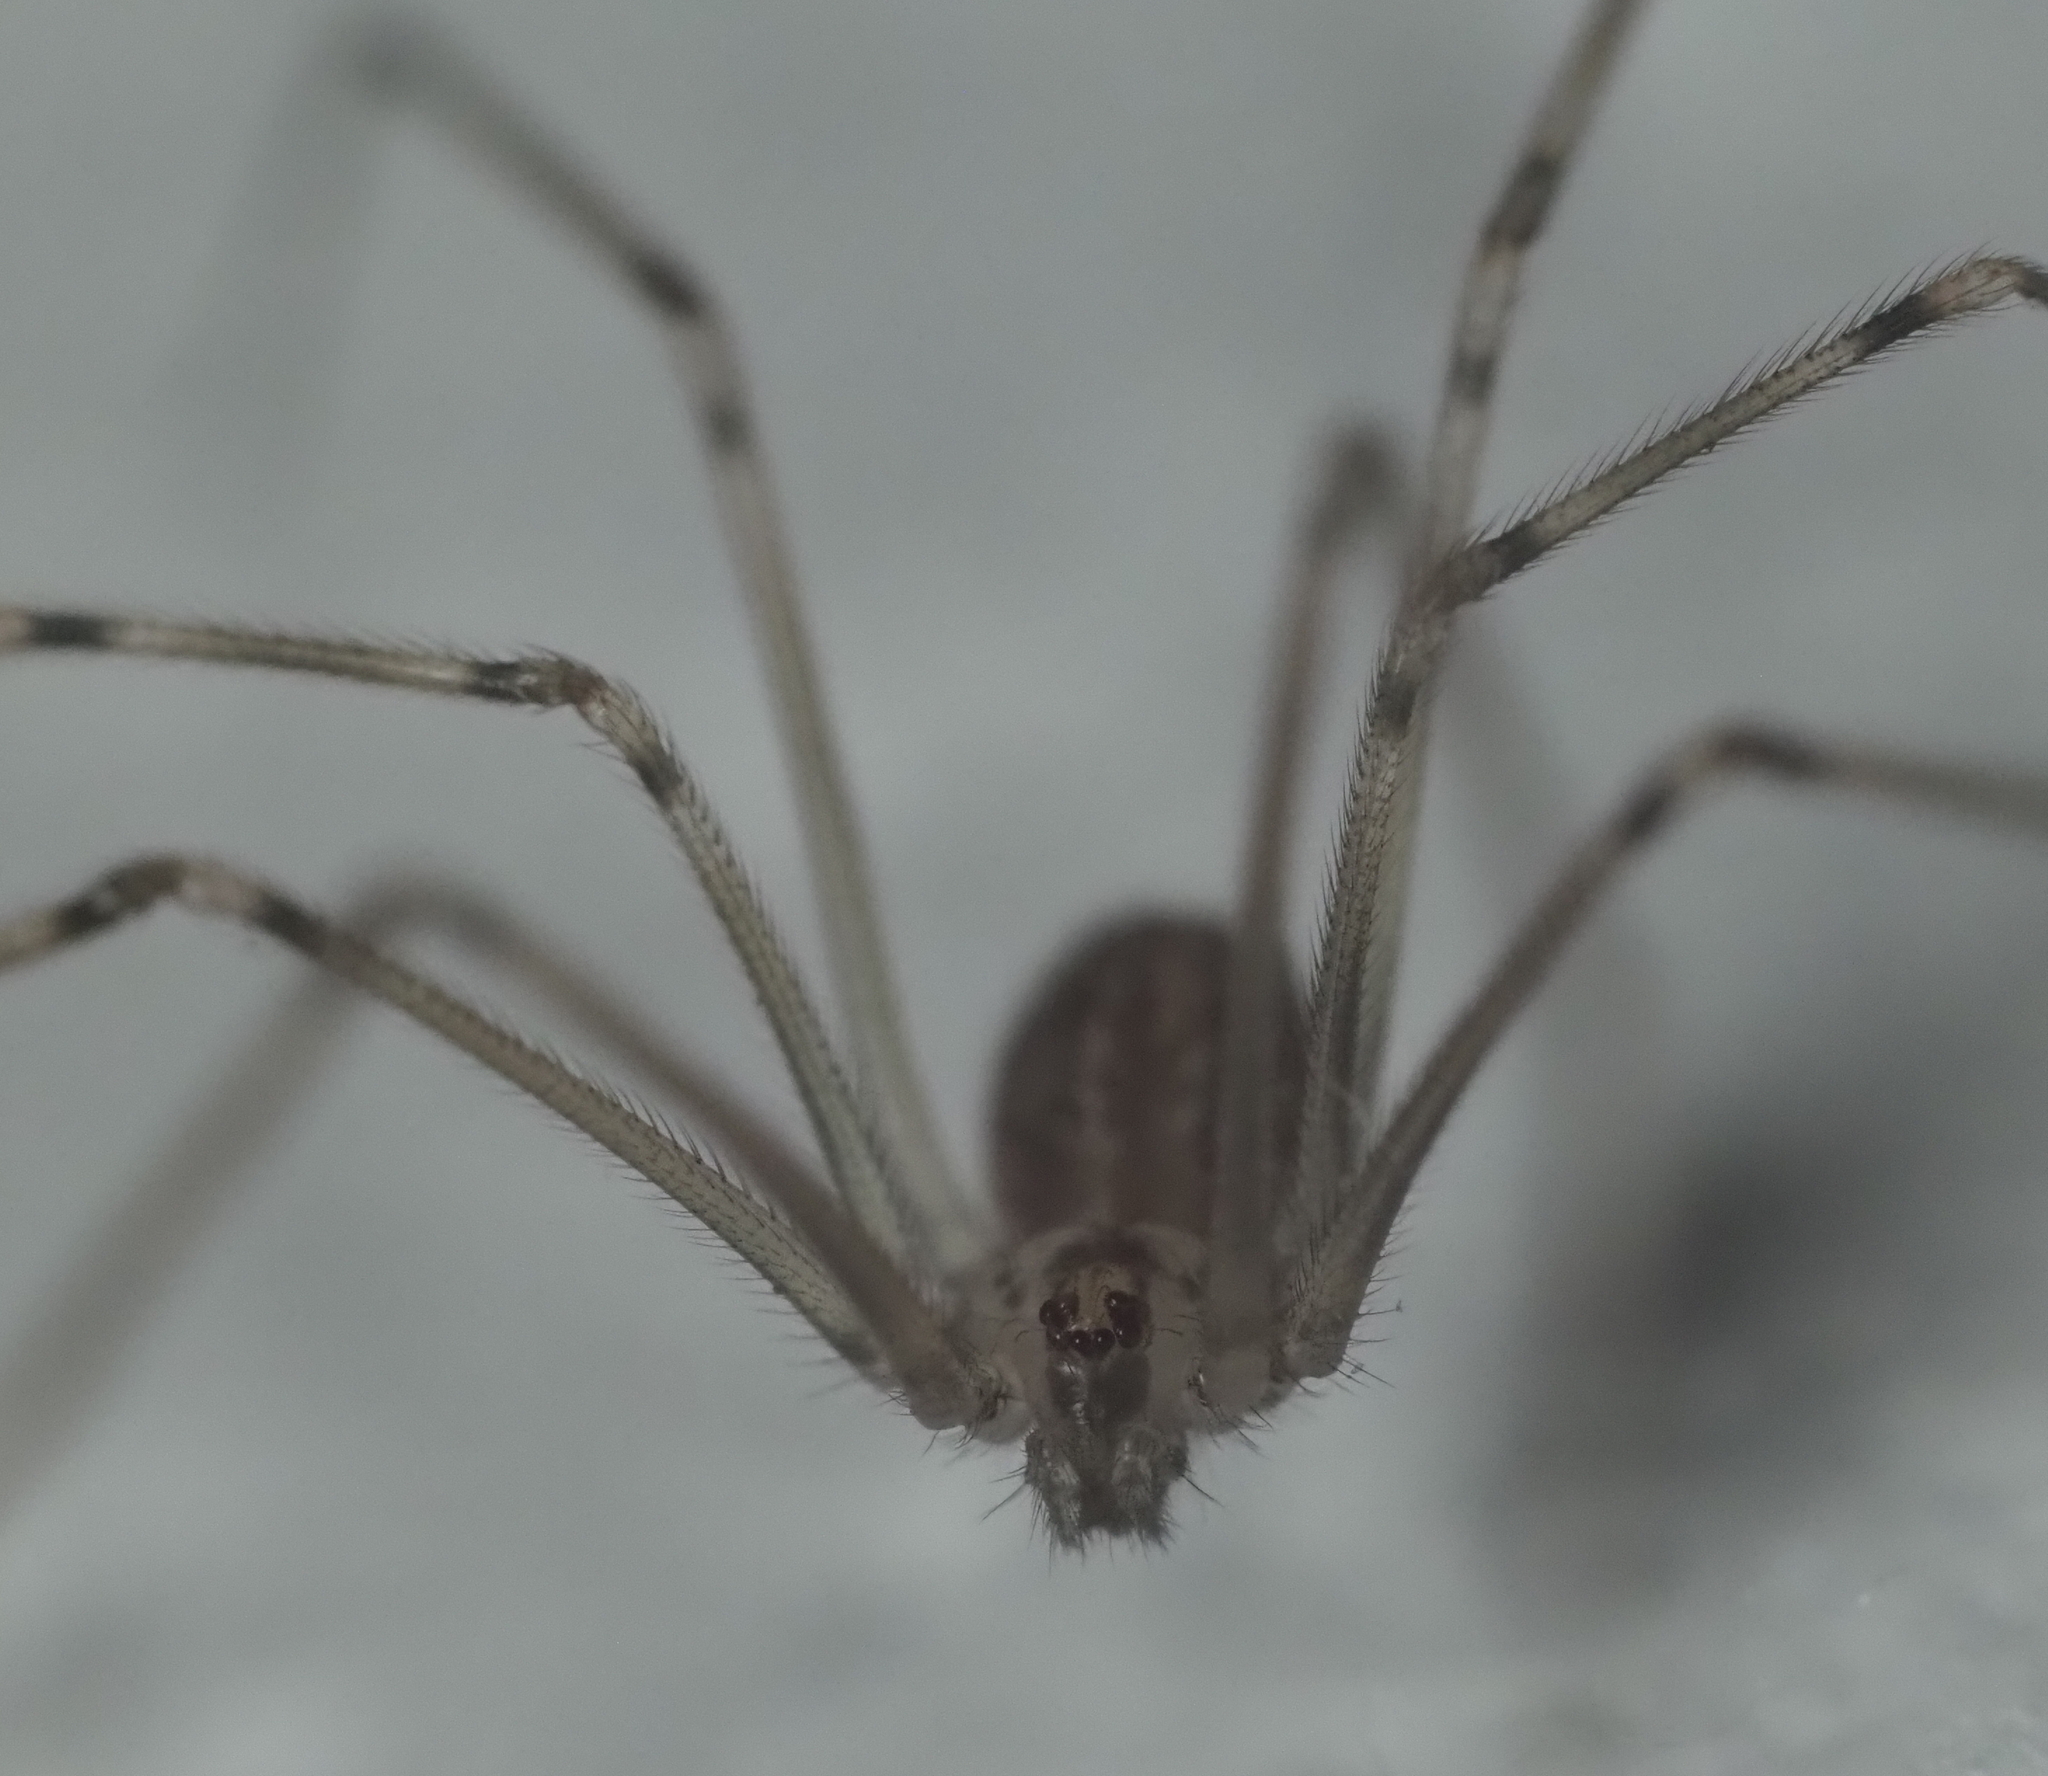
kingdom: Animalia
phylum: Arthropoda
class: Arachnida
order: Araneae
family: Pholcidae
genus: Physocyclus
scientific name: Physocyclus globosus
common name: Cellar spiders
